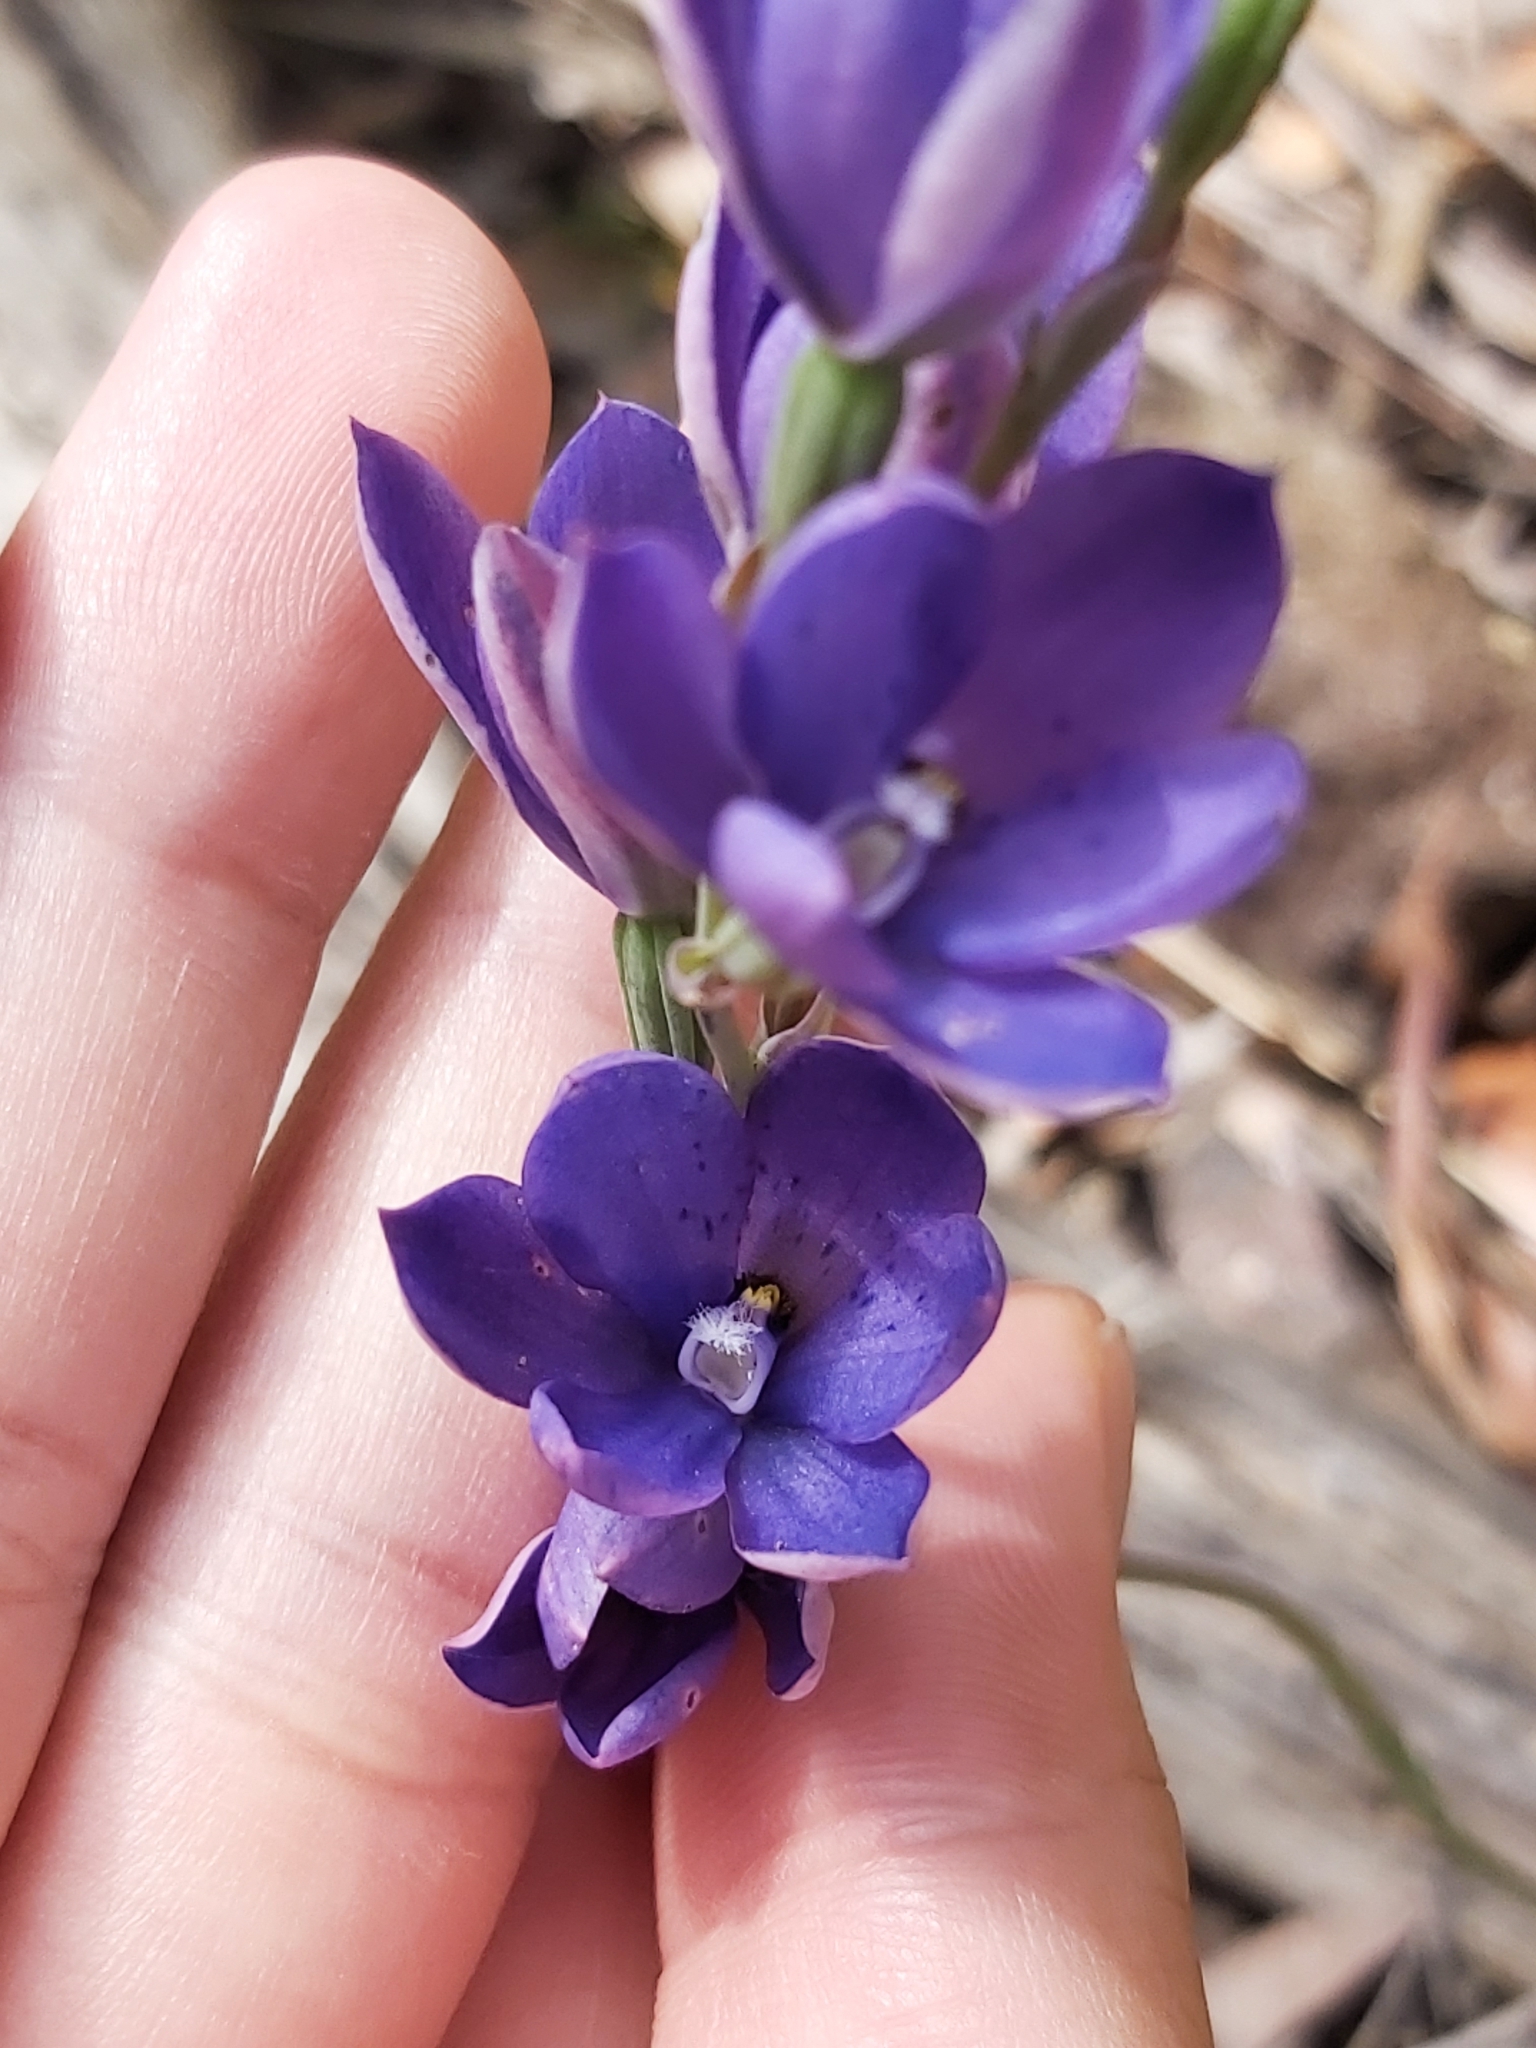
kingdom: Plantae
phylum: Tracheophyta
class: Liliopsida
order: Asparagales
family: Orchidaceae
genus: Thelymitra
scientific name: Thelymitra ixioides
